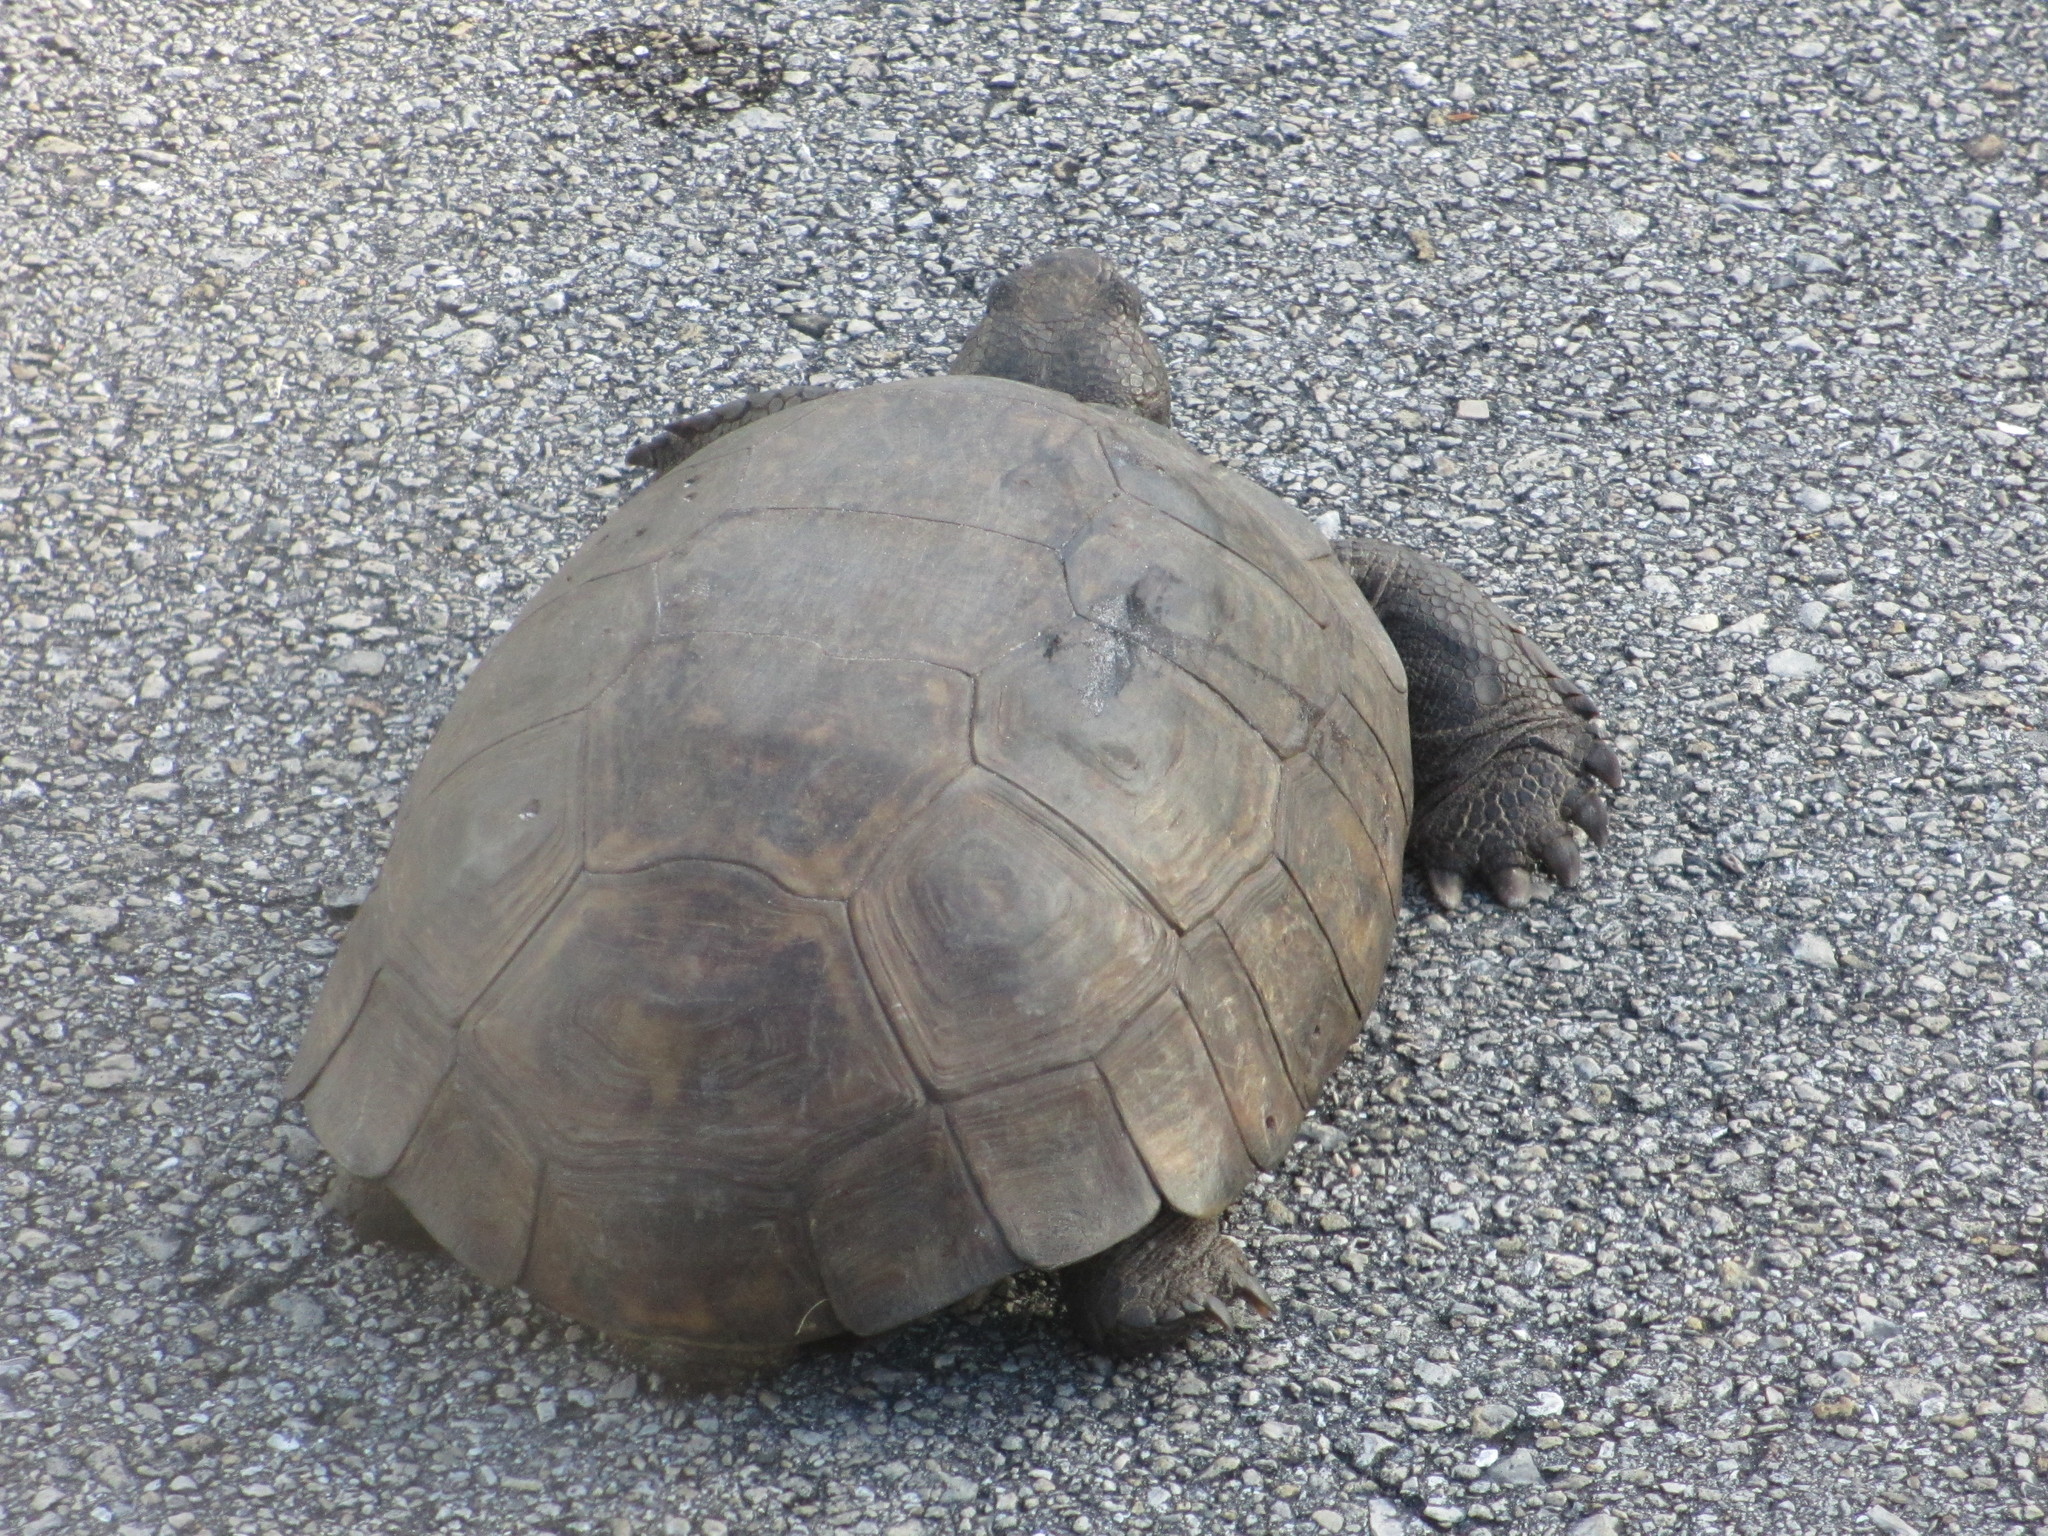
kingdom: Animalia
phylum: Chordata
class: Testudines
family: Testudinidae
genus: Gopherus
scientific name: Gopherus polyphemus
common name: Florida gopher tortoise
